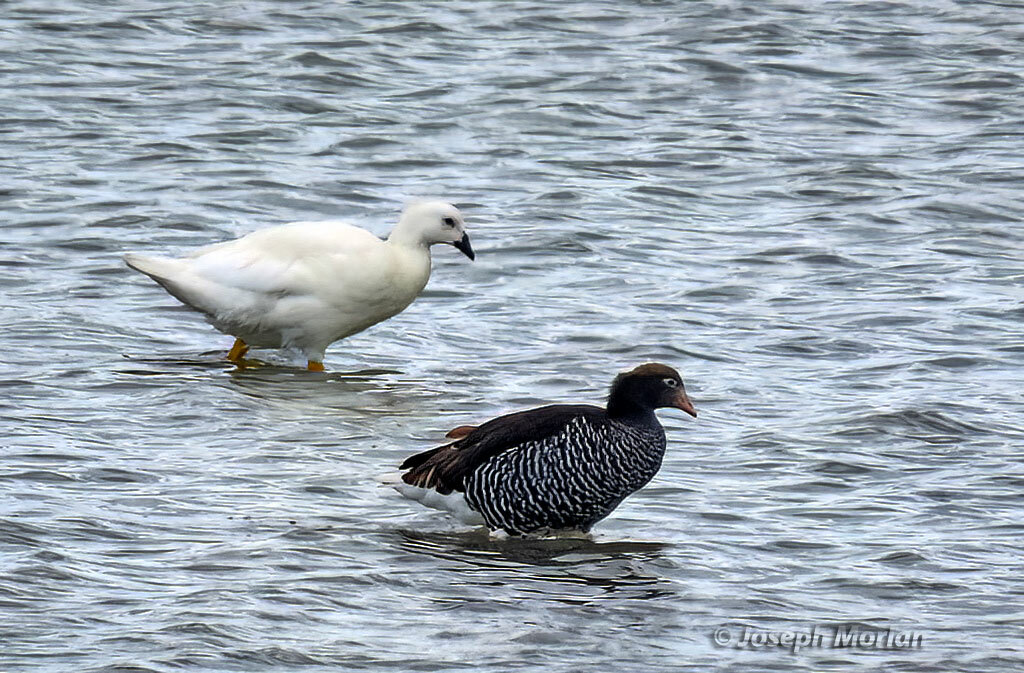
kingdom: Animalia
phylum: Chordata
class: Aves
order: Anseriformes
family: Anatidae
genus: Chloephaga
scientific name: Chloephaga hybrida
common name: Kelp goose
